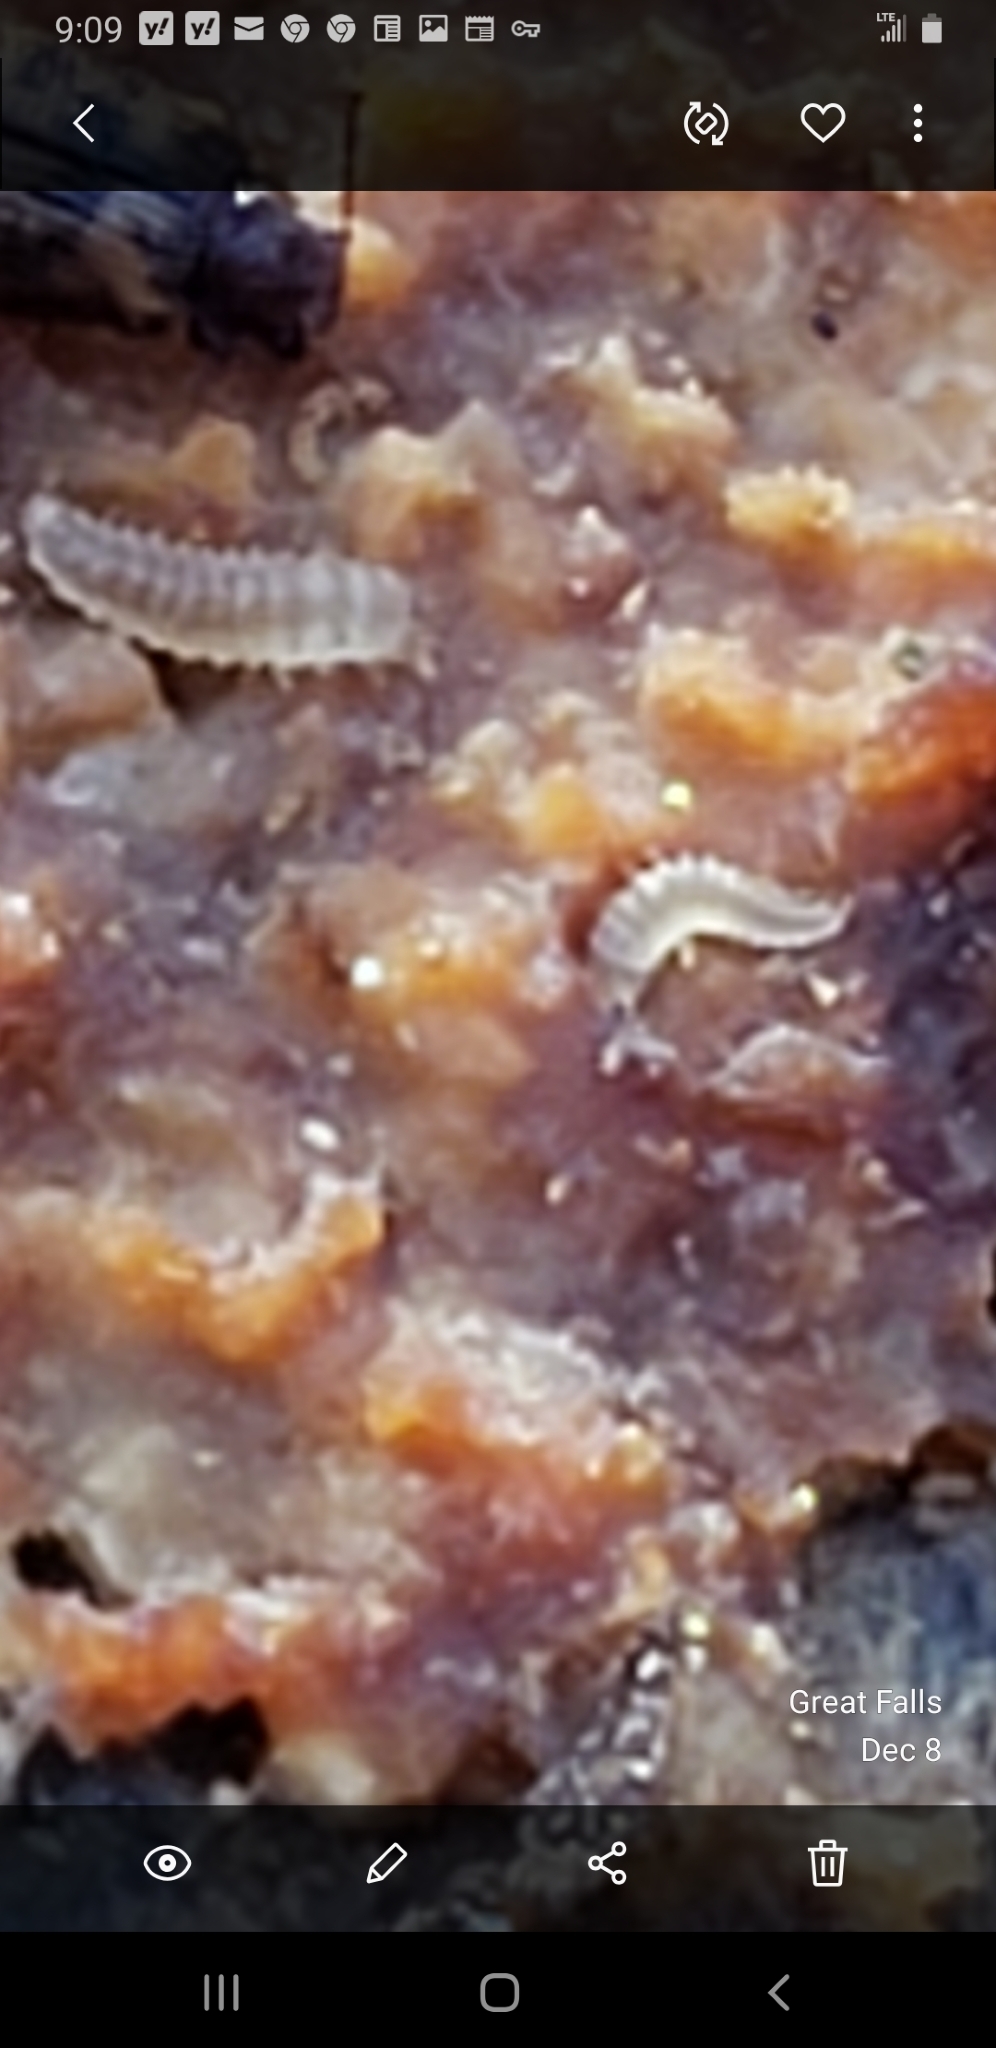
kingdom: Animalia
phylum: Arthropoda
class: Insecta
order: Coleoptera
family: Derodontidae
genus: Derodontus
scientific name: Derodontus esotericus
